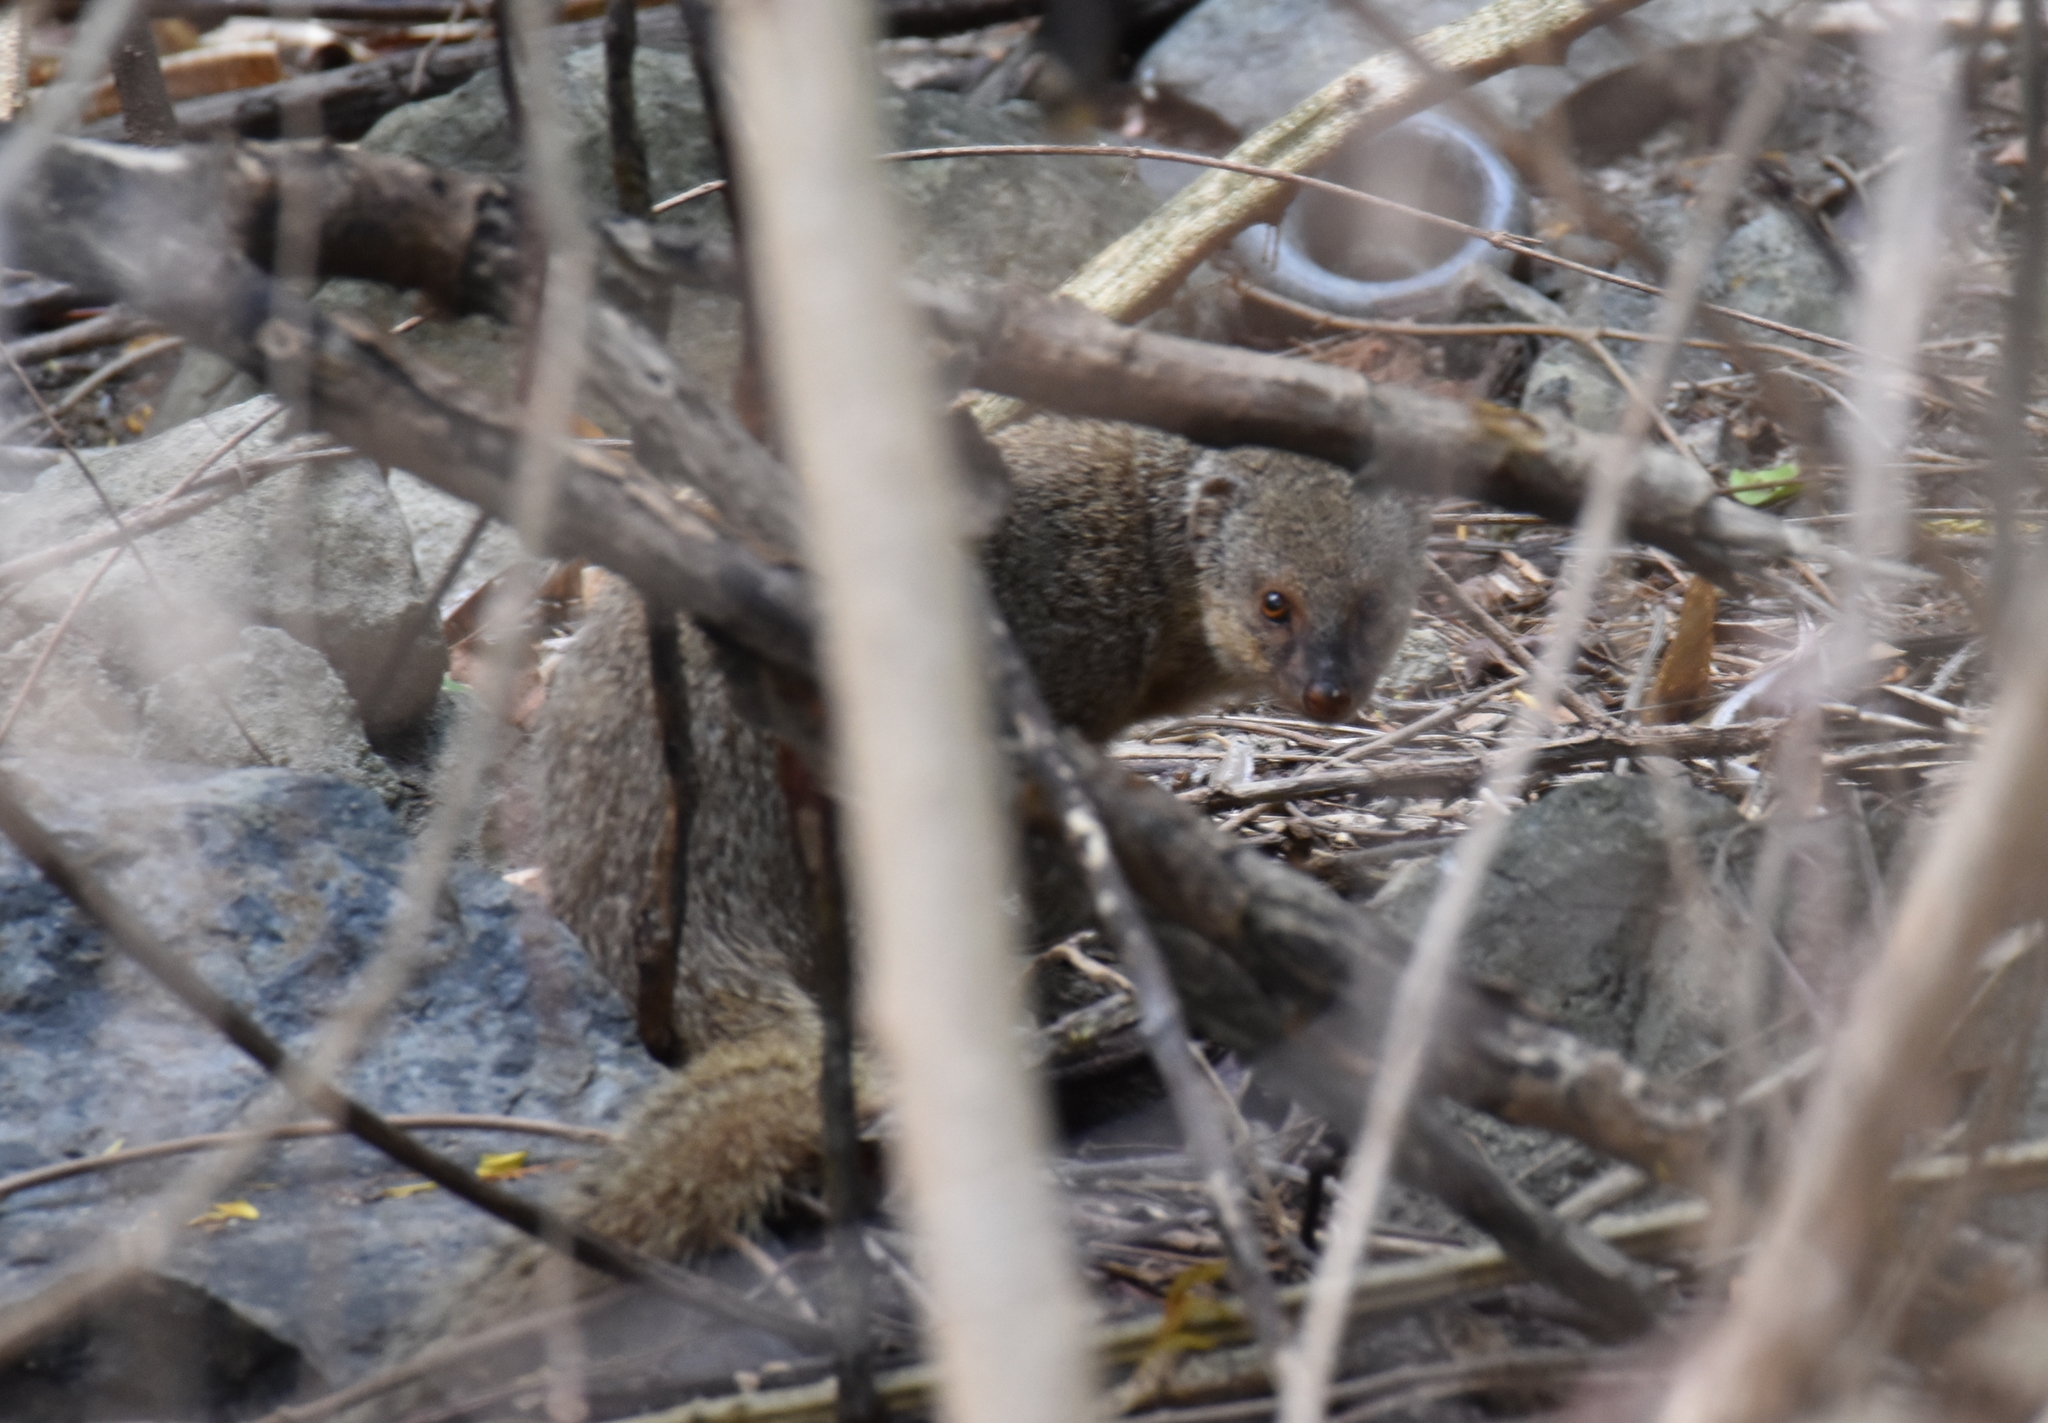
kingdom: Animalia
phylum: Chordata
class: Mammalia
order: Carnivora
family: Herpestidae
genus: Herpestes
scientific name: Herpestes javanicus
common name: Small asian mongoose
